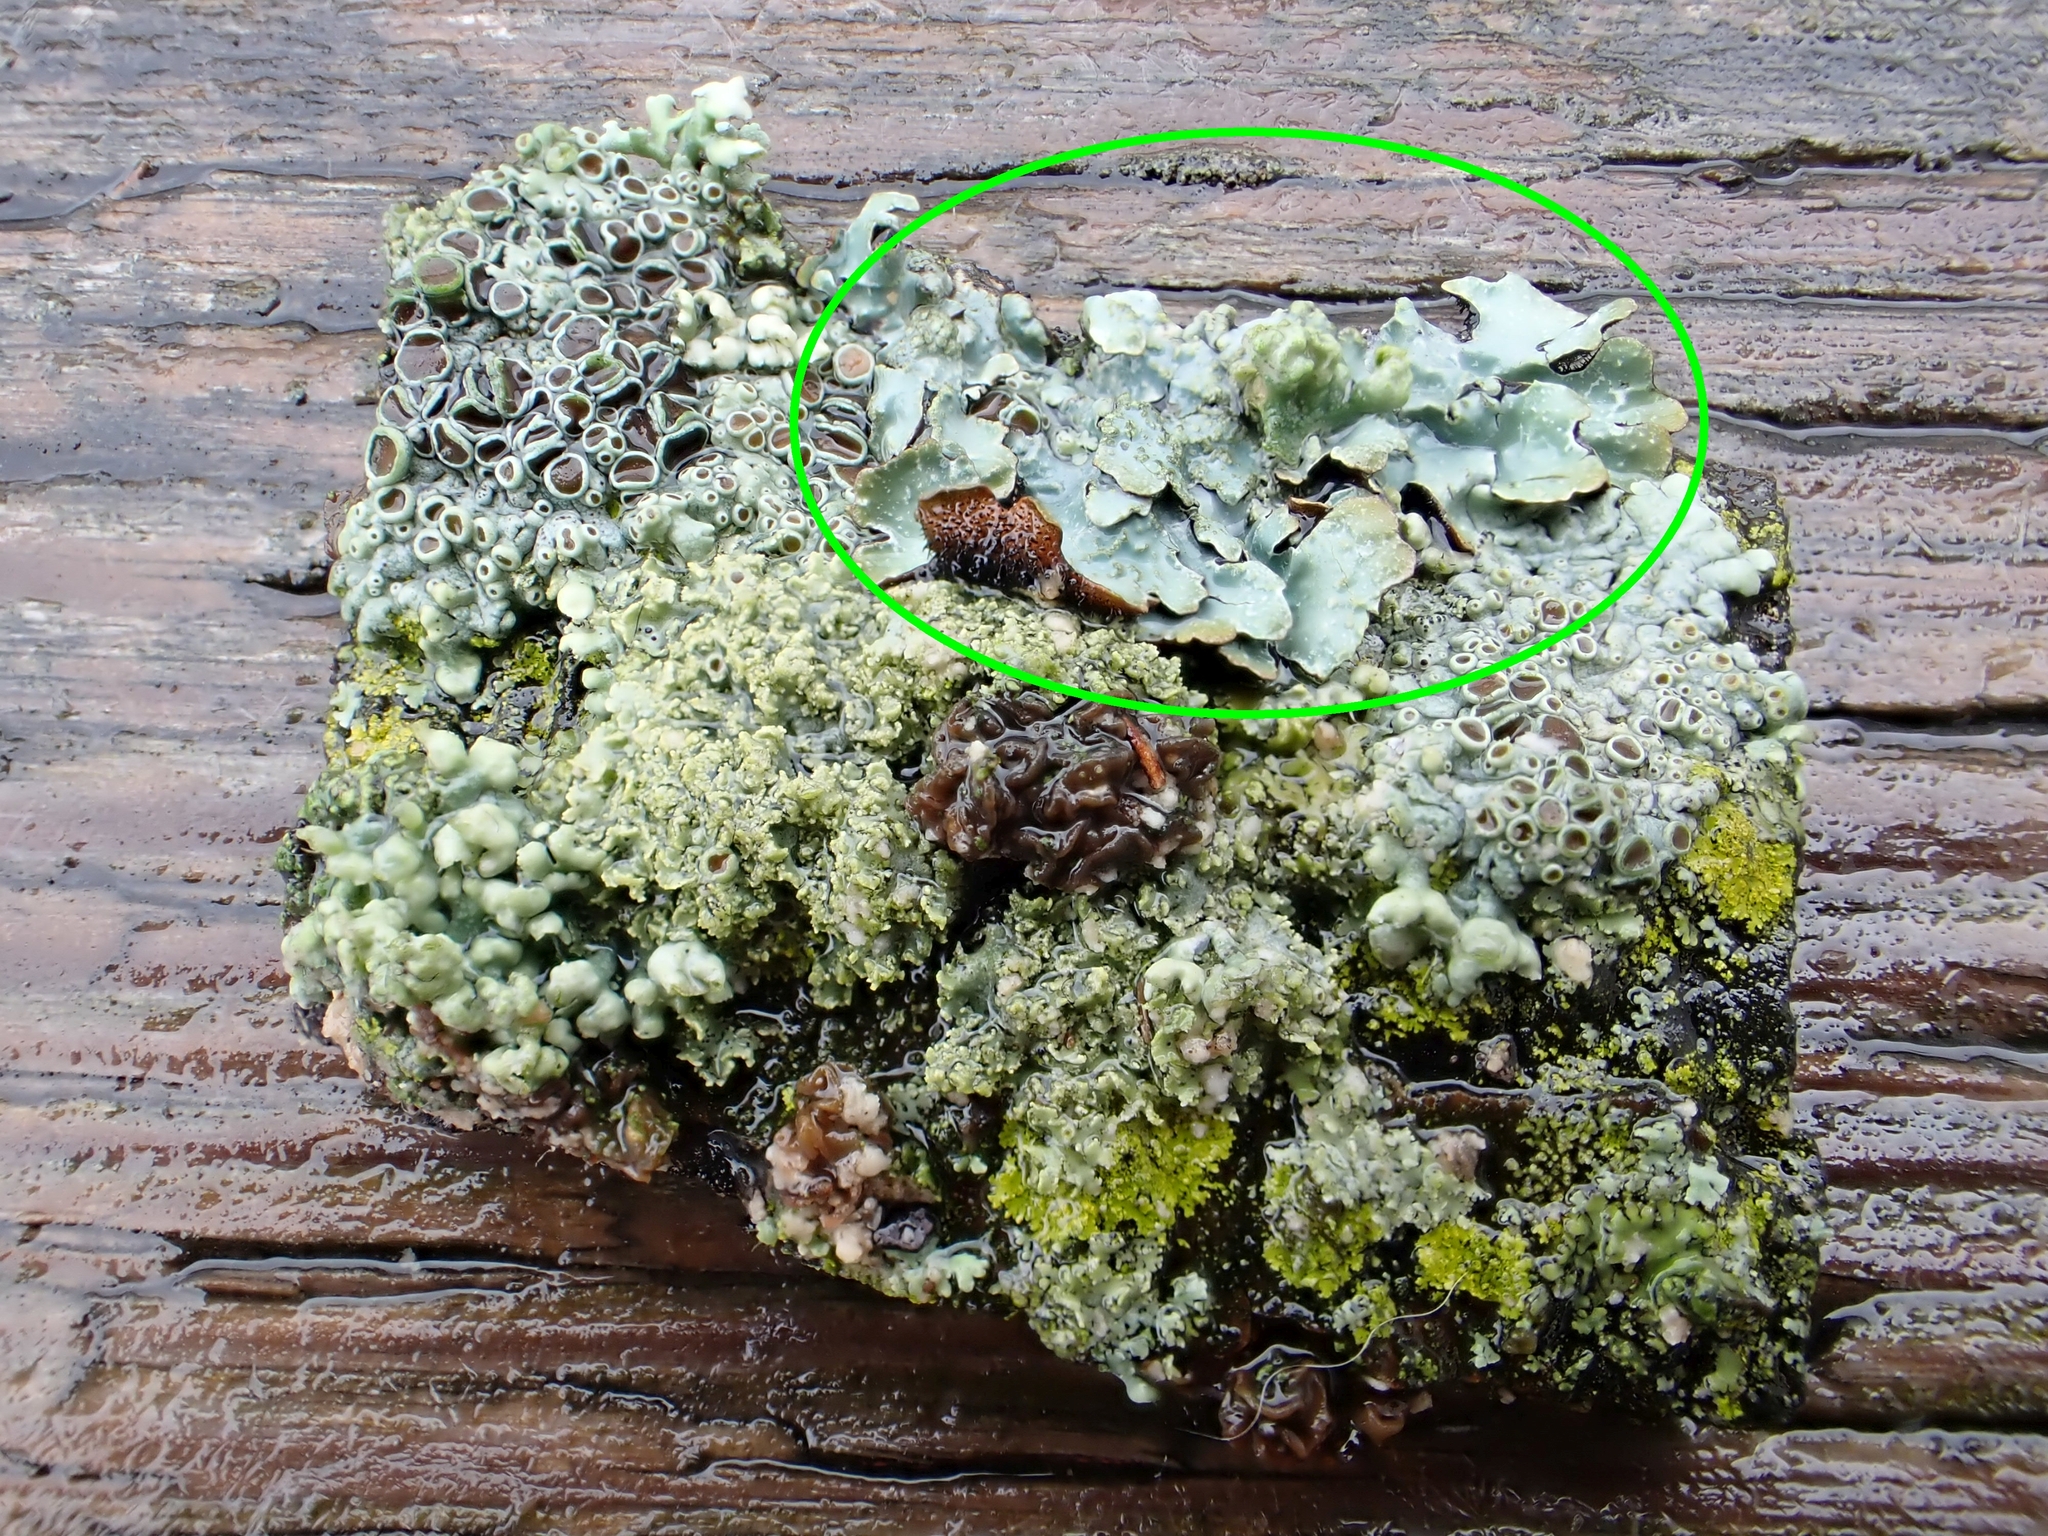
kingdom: Fungi
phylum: Ascomycota
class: Lecanoromycetes
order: Lecanorales
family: Parmeliaceae
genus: Parmelia
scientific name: Parmelia sulcata
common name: Netted shield lichen
